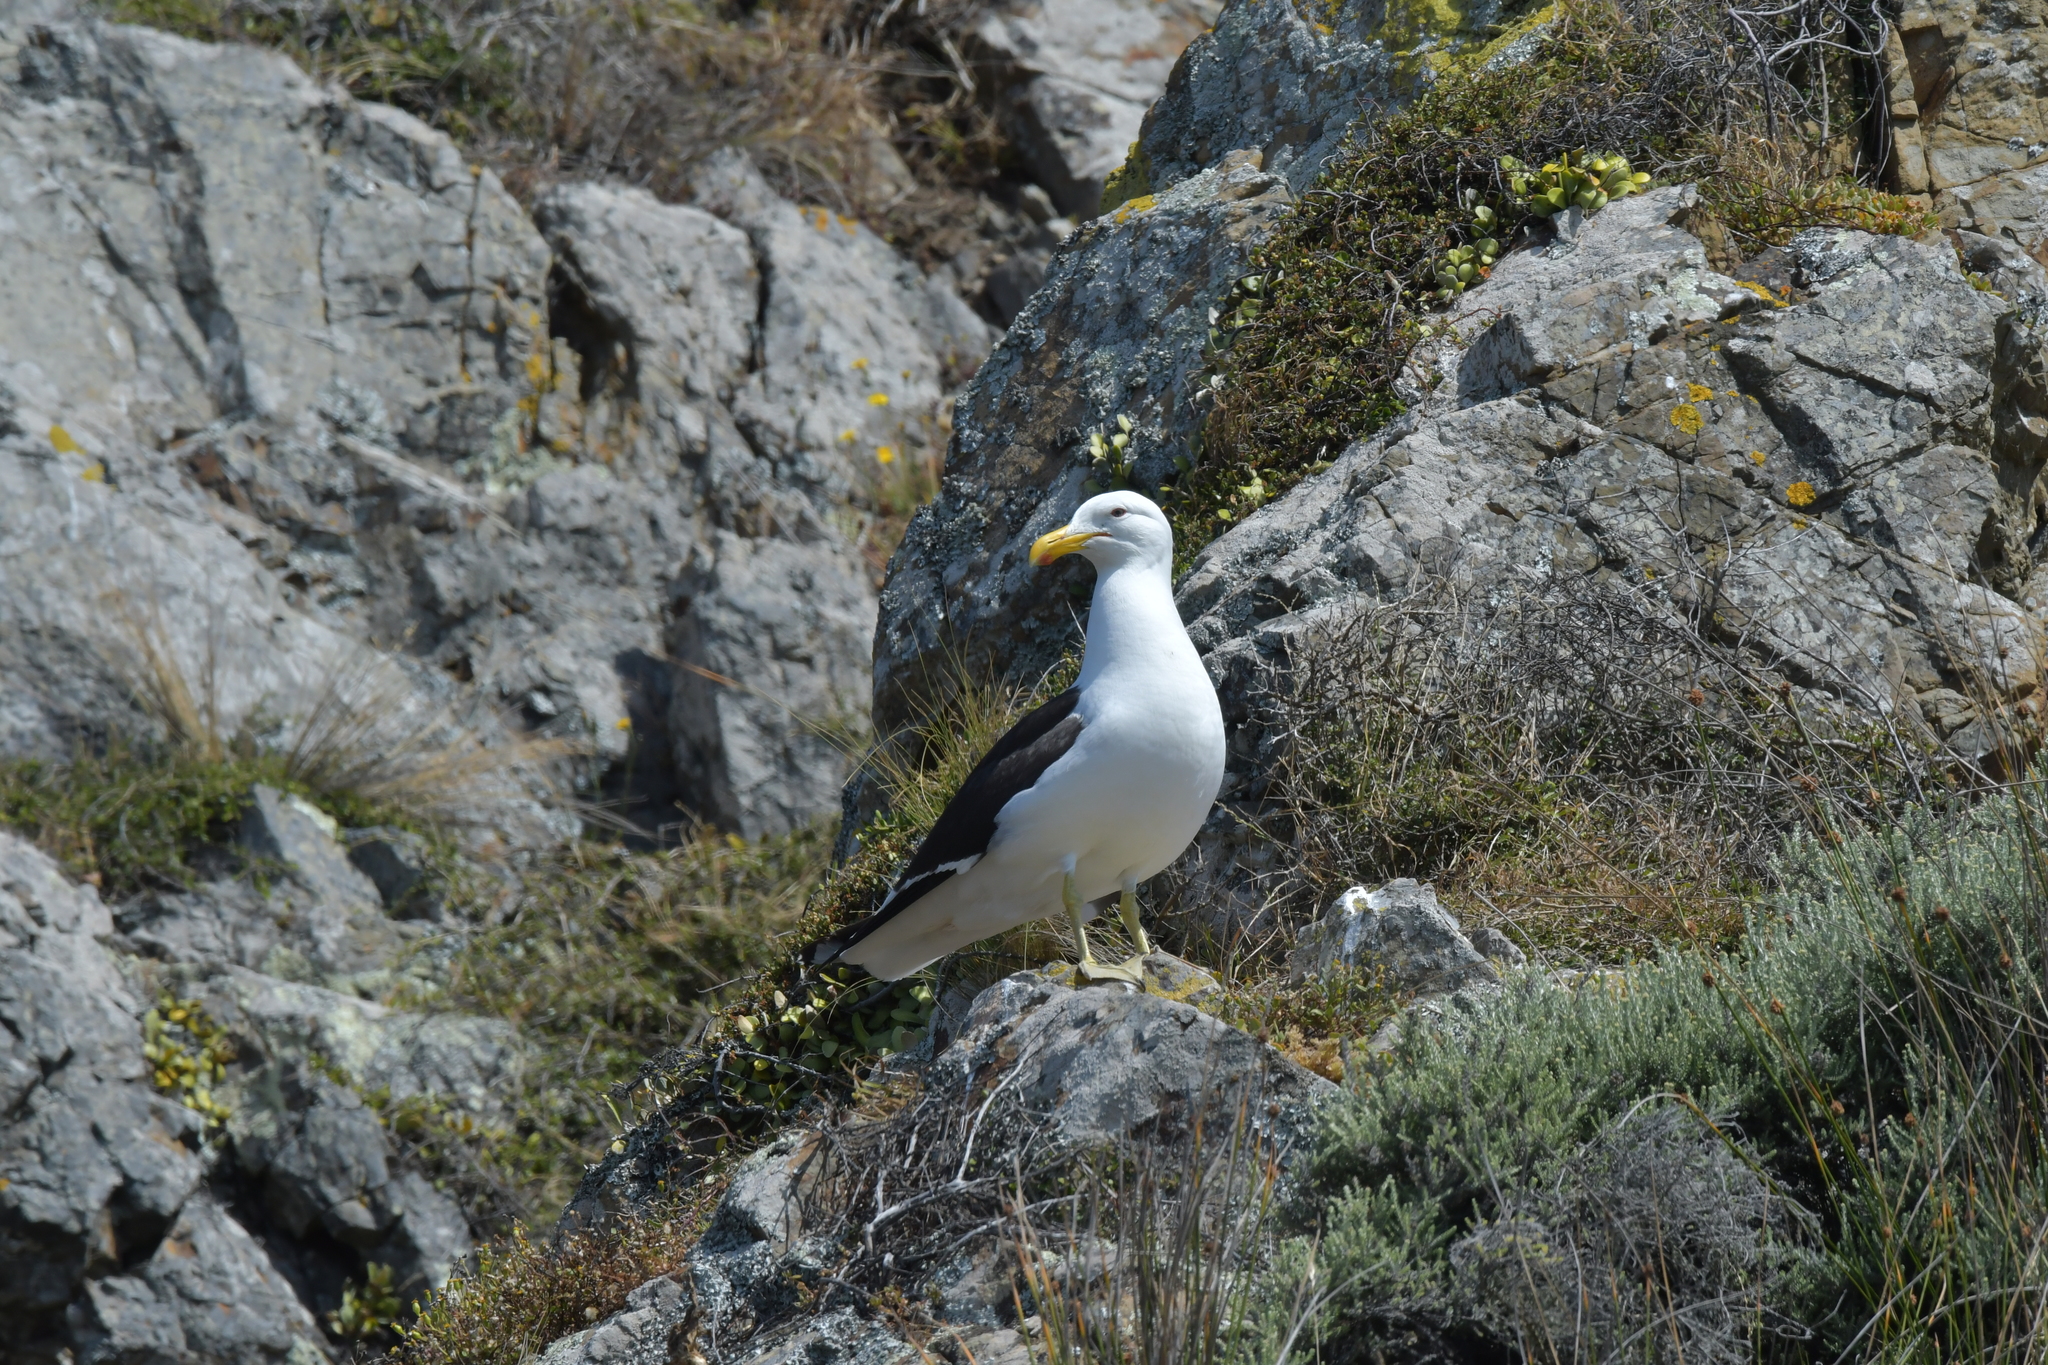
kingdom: Animalia
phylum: Chordata
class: Aves
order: Charadriiformes
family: Laridae
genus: Larus
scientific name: Larus dominicanus
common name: Kelp gull
